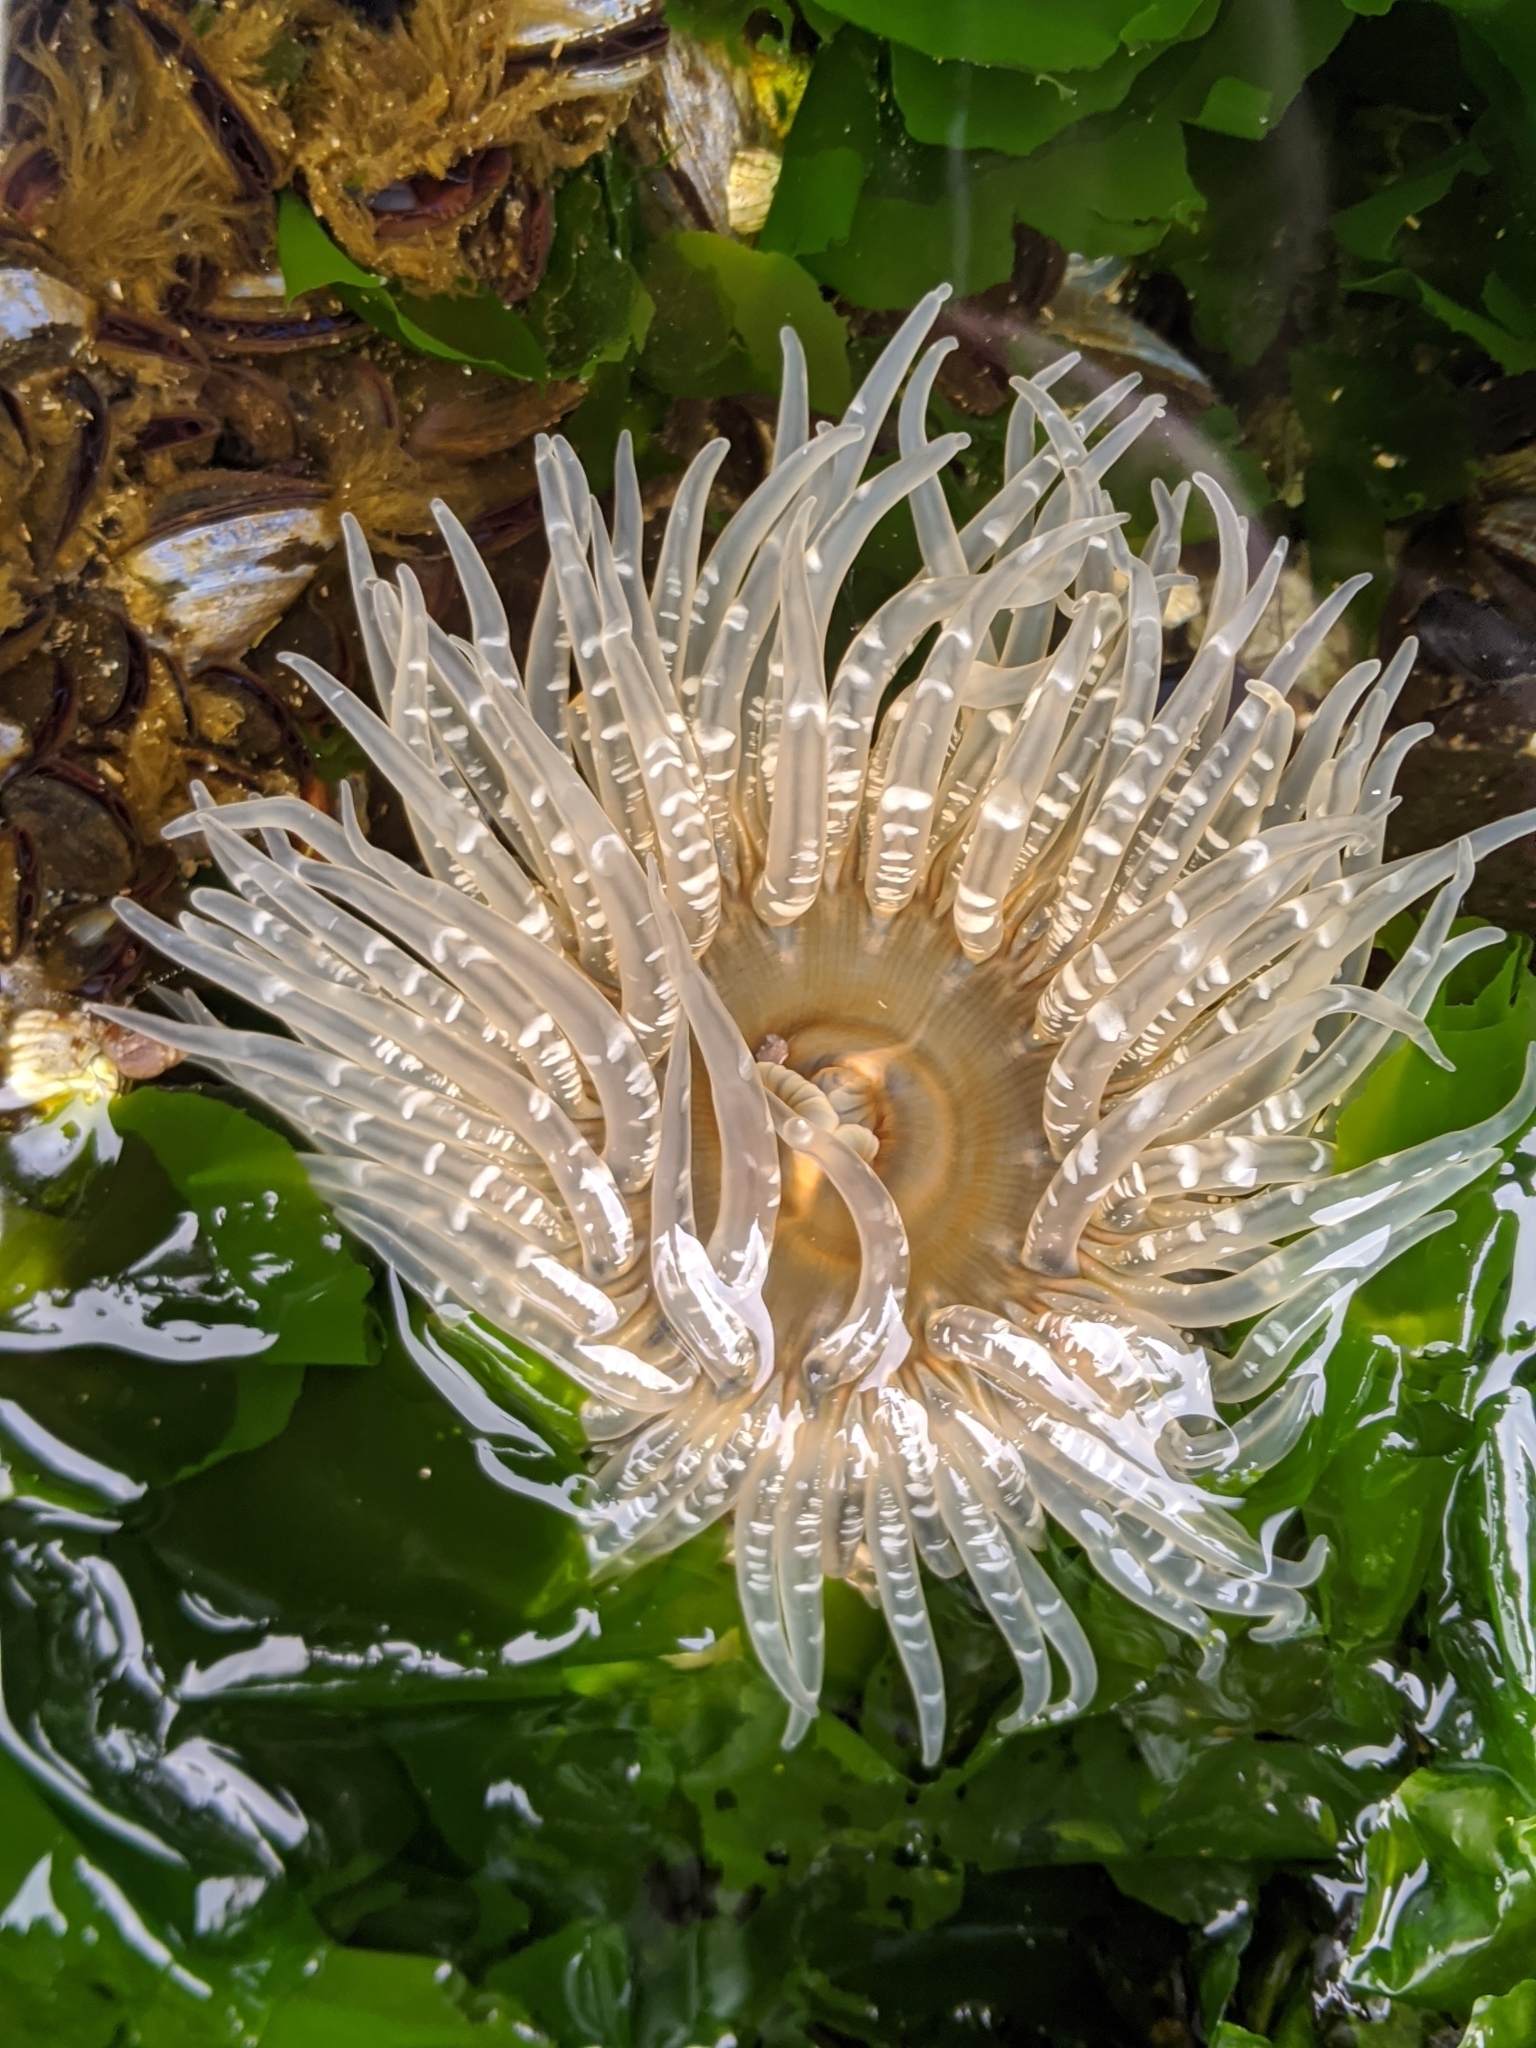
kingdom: Animalia
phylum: Cnidaria
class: Anthozoa
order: Actiniaria
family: Actiniidae
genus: Anthopleura
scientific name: Anthopleura artemisia
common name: Buried sea anemone
